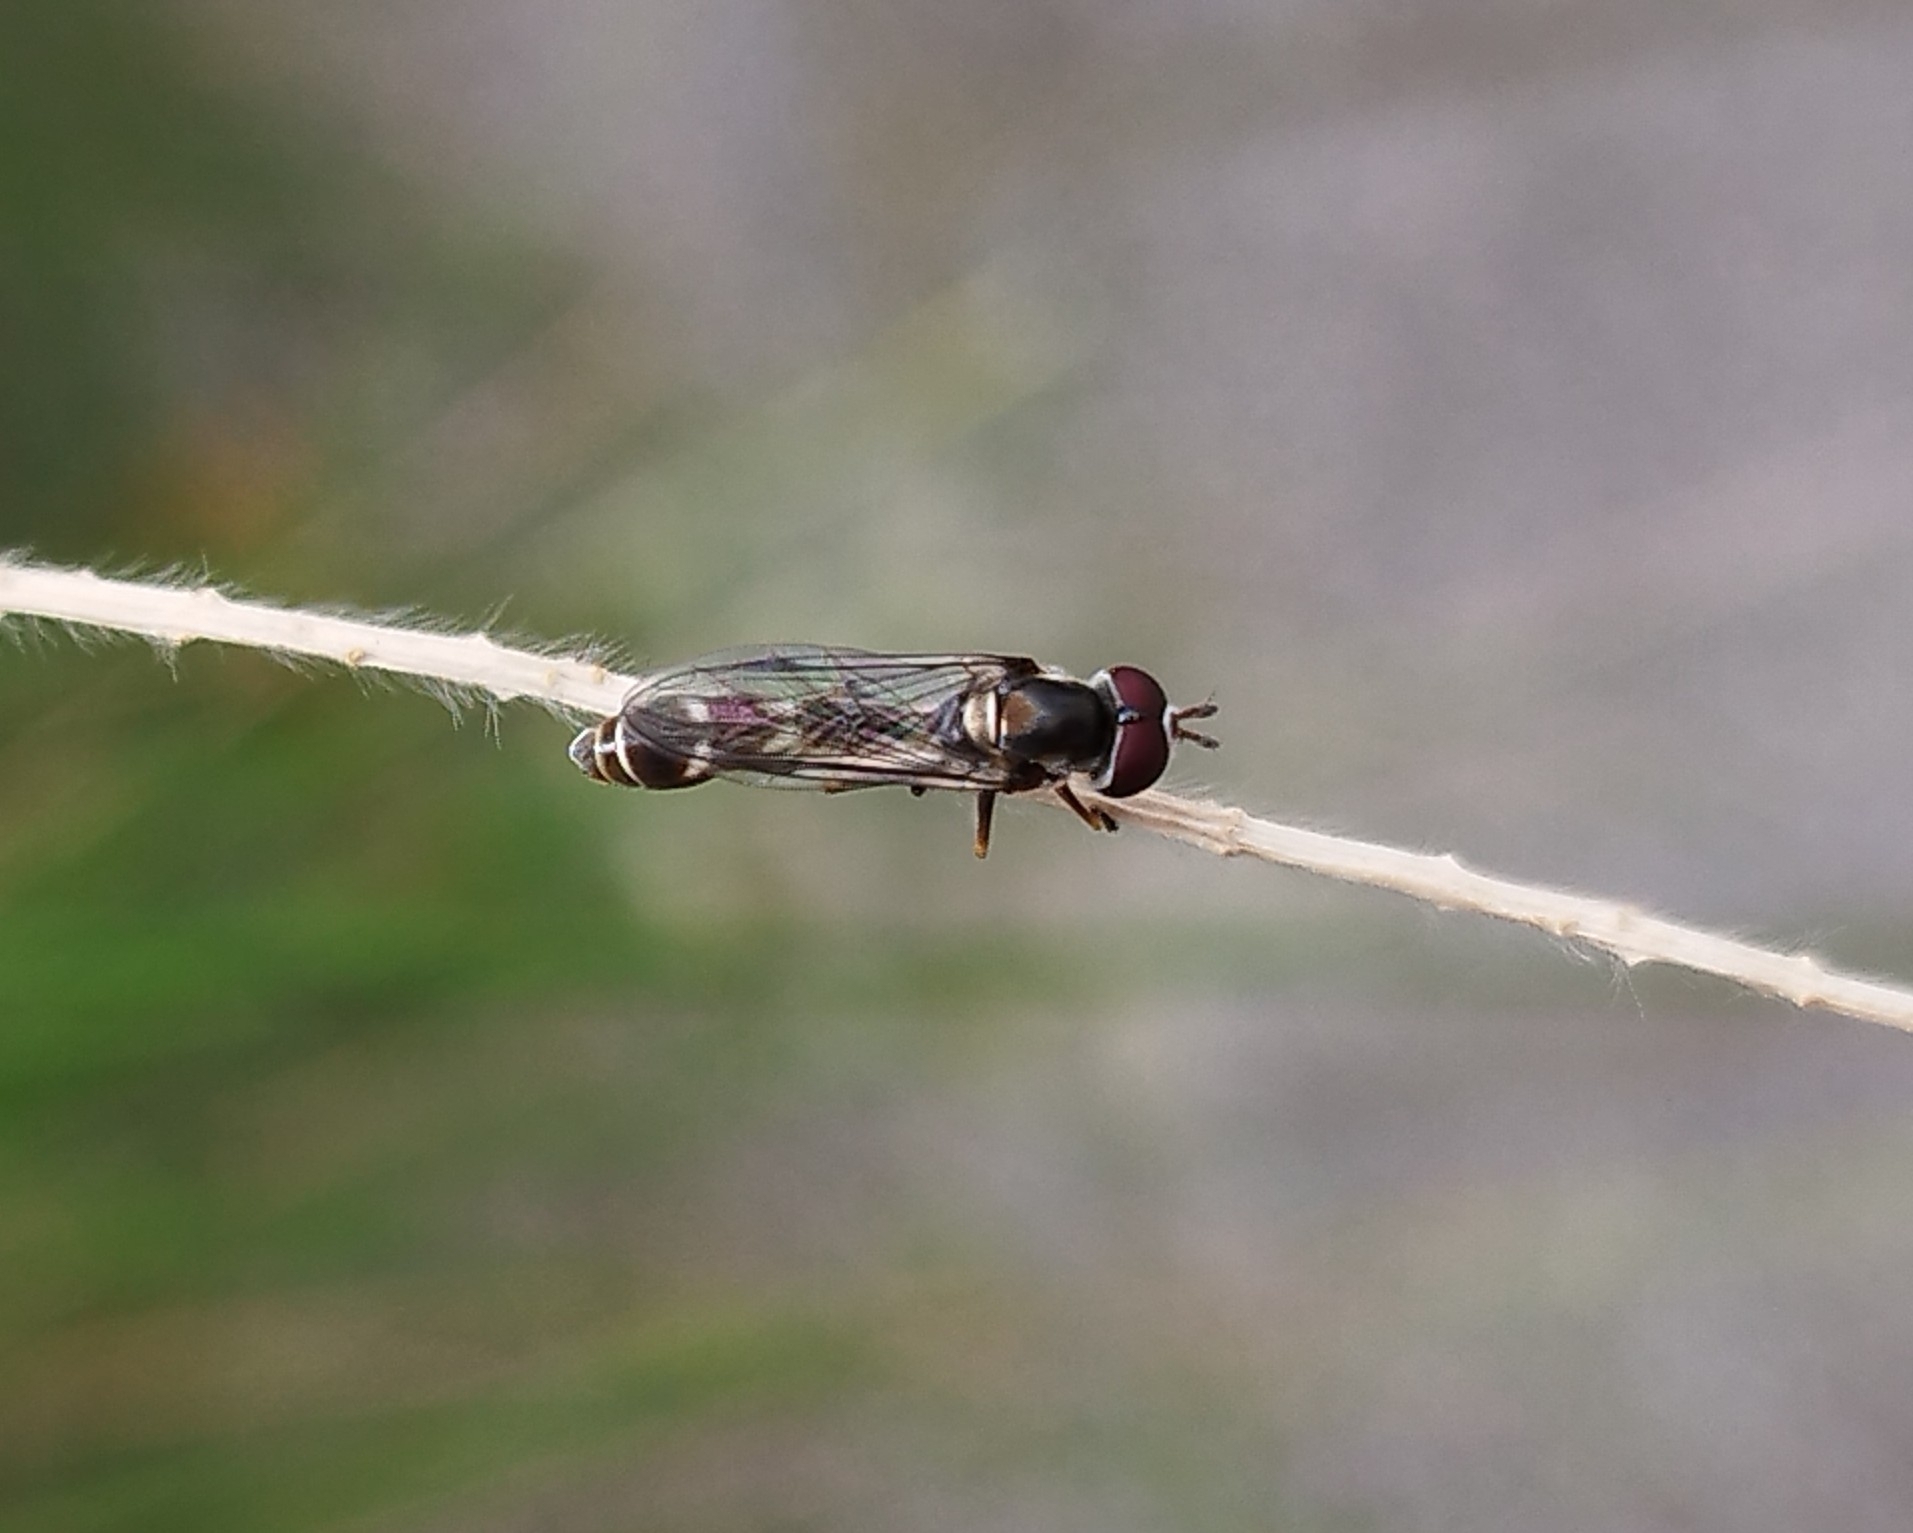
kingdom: Animalia
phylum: Arthropoda
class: Insecta
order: Diptera
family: Syrphidae
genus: Dioprosopa
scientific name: Dioprosopa clavatus
